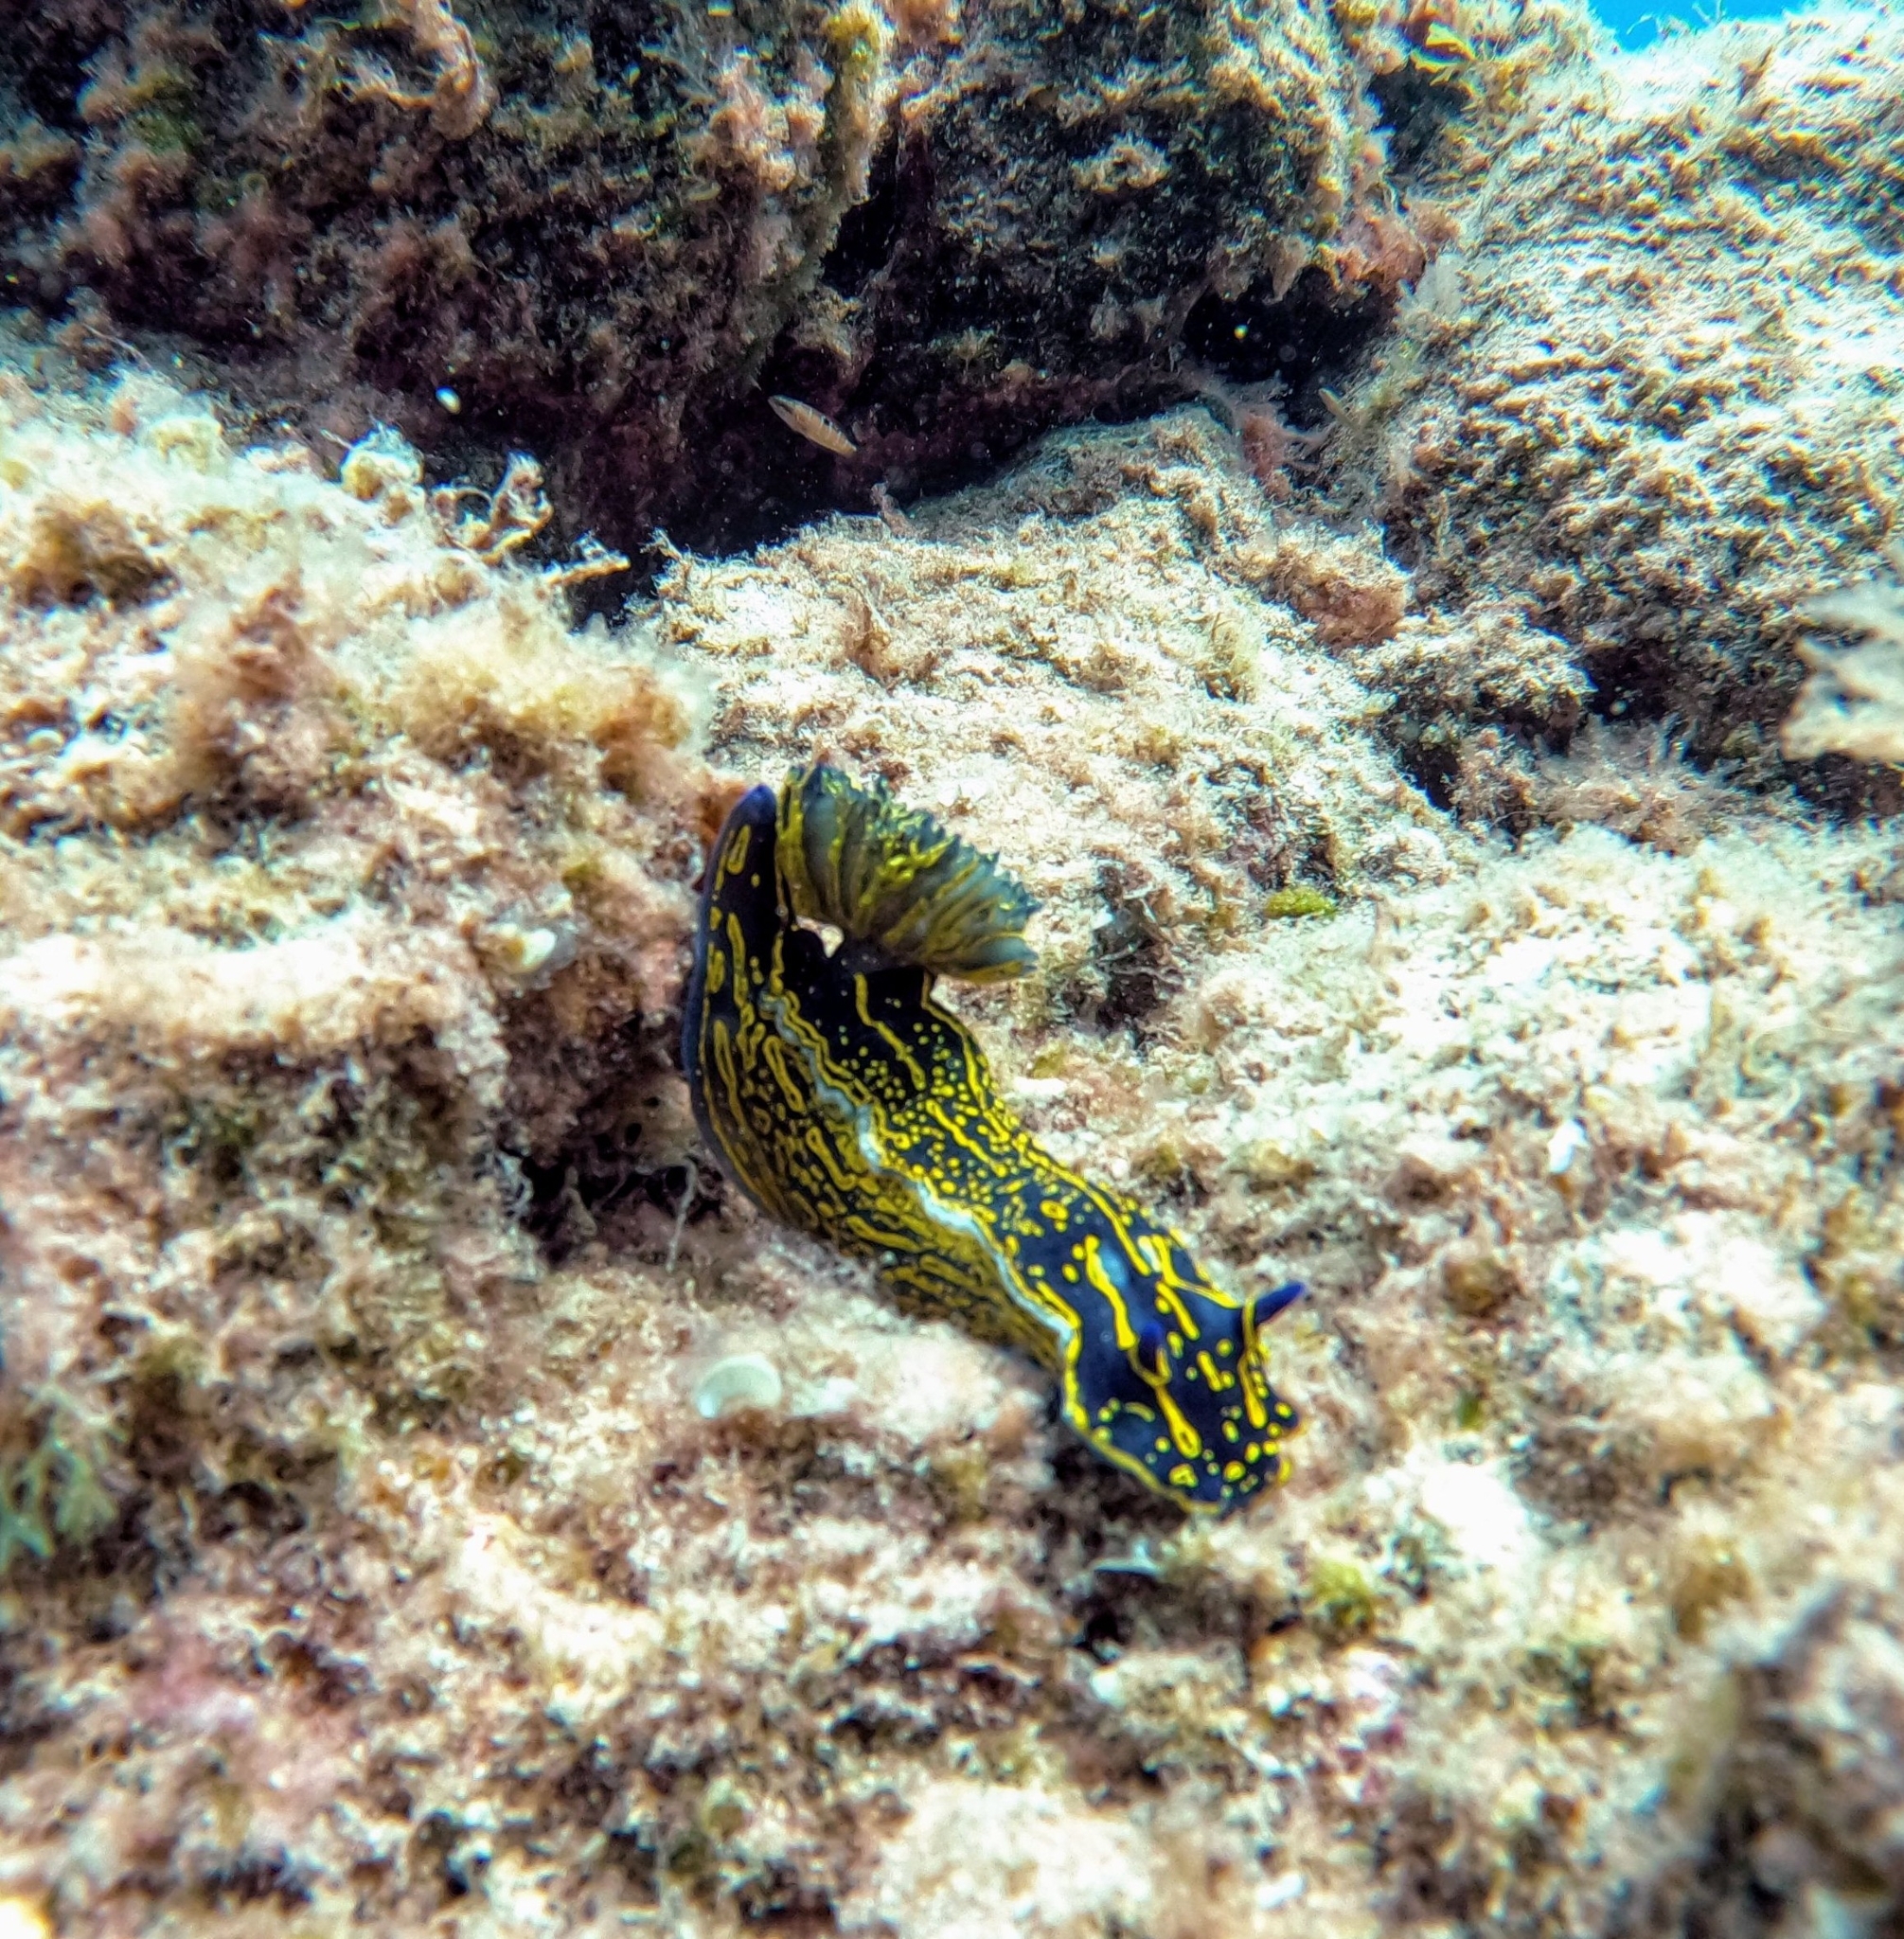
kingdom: Animalia
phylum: Mollusca
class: Gastropoda
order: Nudibranchia
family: Chromodorididae
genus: Felimare
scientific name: Felimare picta
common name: Giant doris
